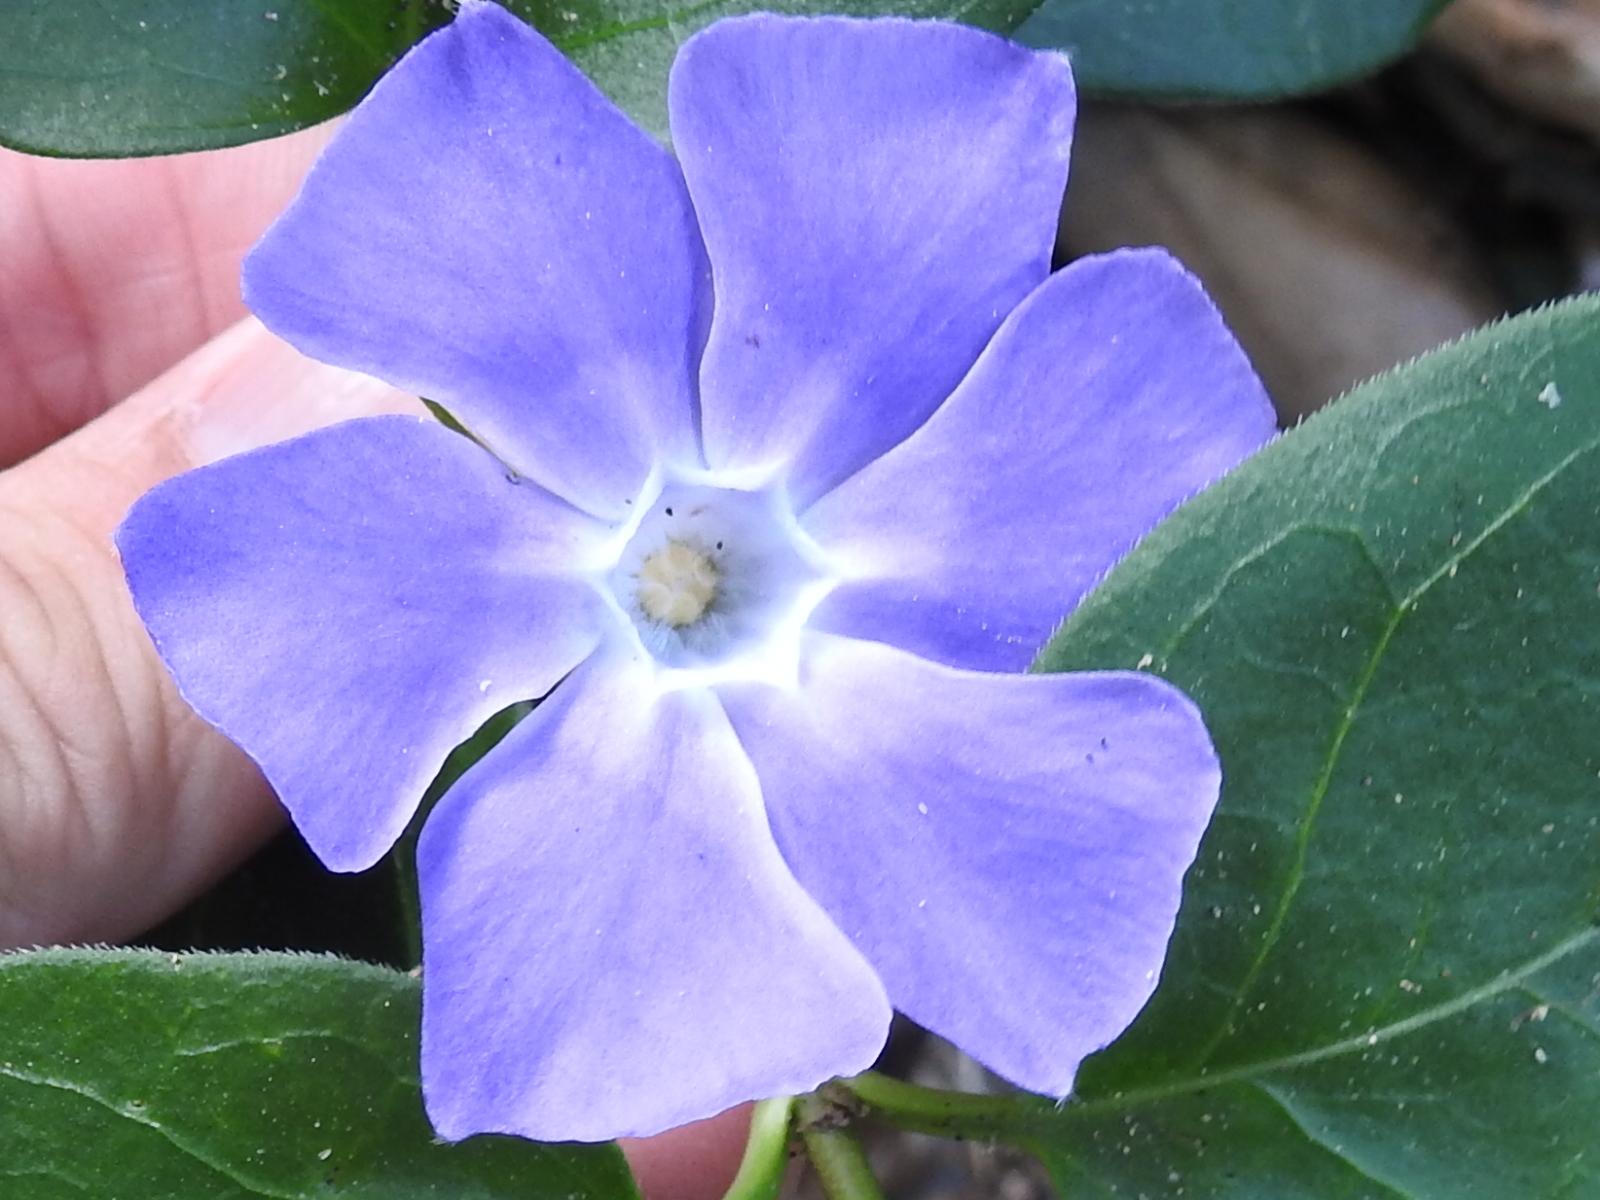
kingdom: Plantae
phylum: Tracheophyta
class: Magnoliopsida
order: Gentianales
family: Apocynaceae
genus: Vinca
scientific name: Vinca major
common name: Greater periwinkle
